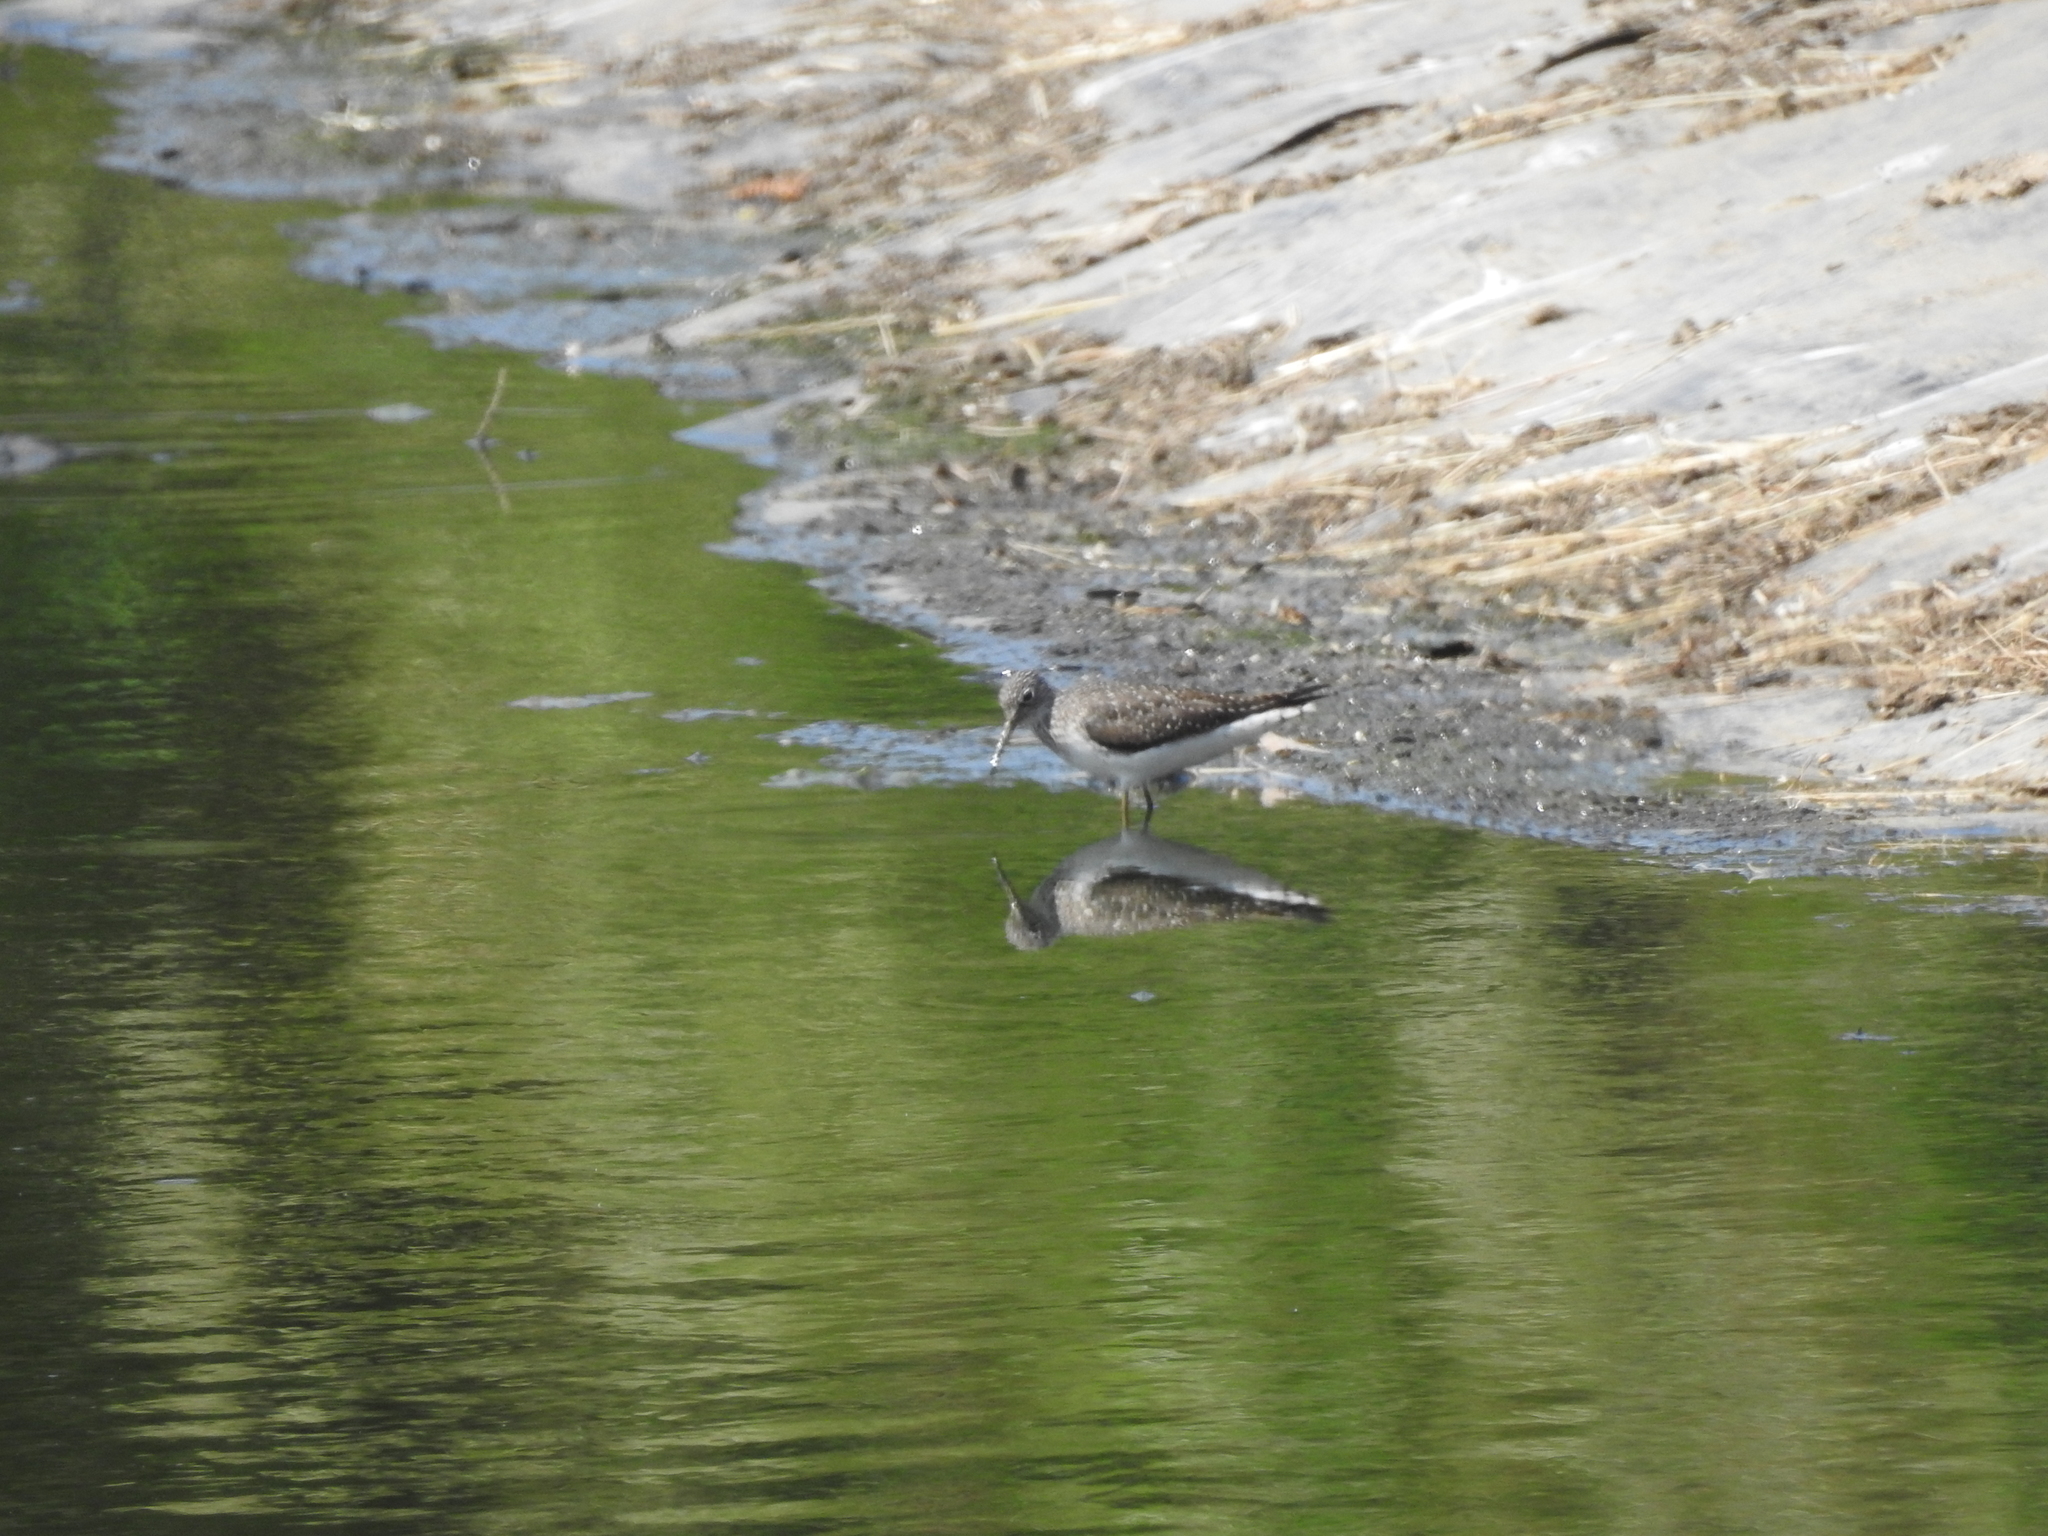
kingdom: Animalia
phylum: Chordata
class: Aves
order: Charadriiformes
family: Scolopacidae
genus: Tringa
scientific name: Tringa solitaria
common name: Solitary sandpiper
